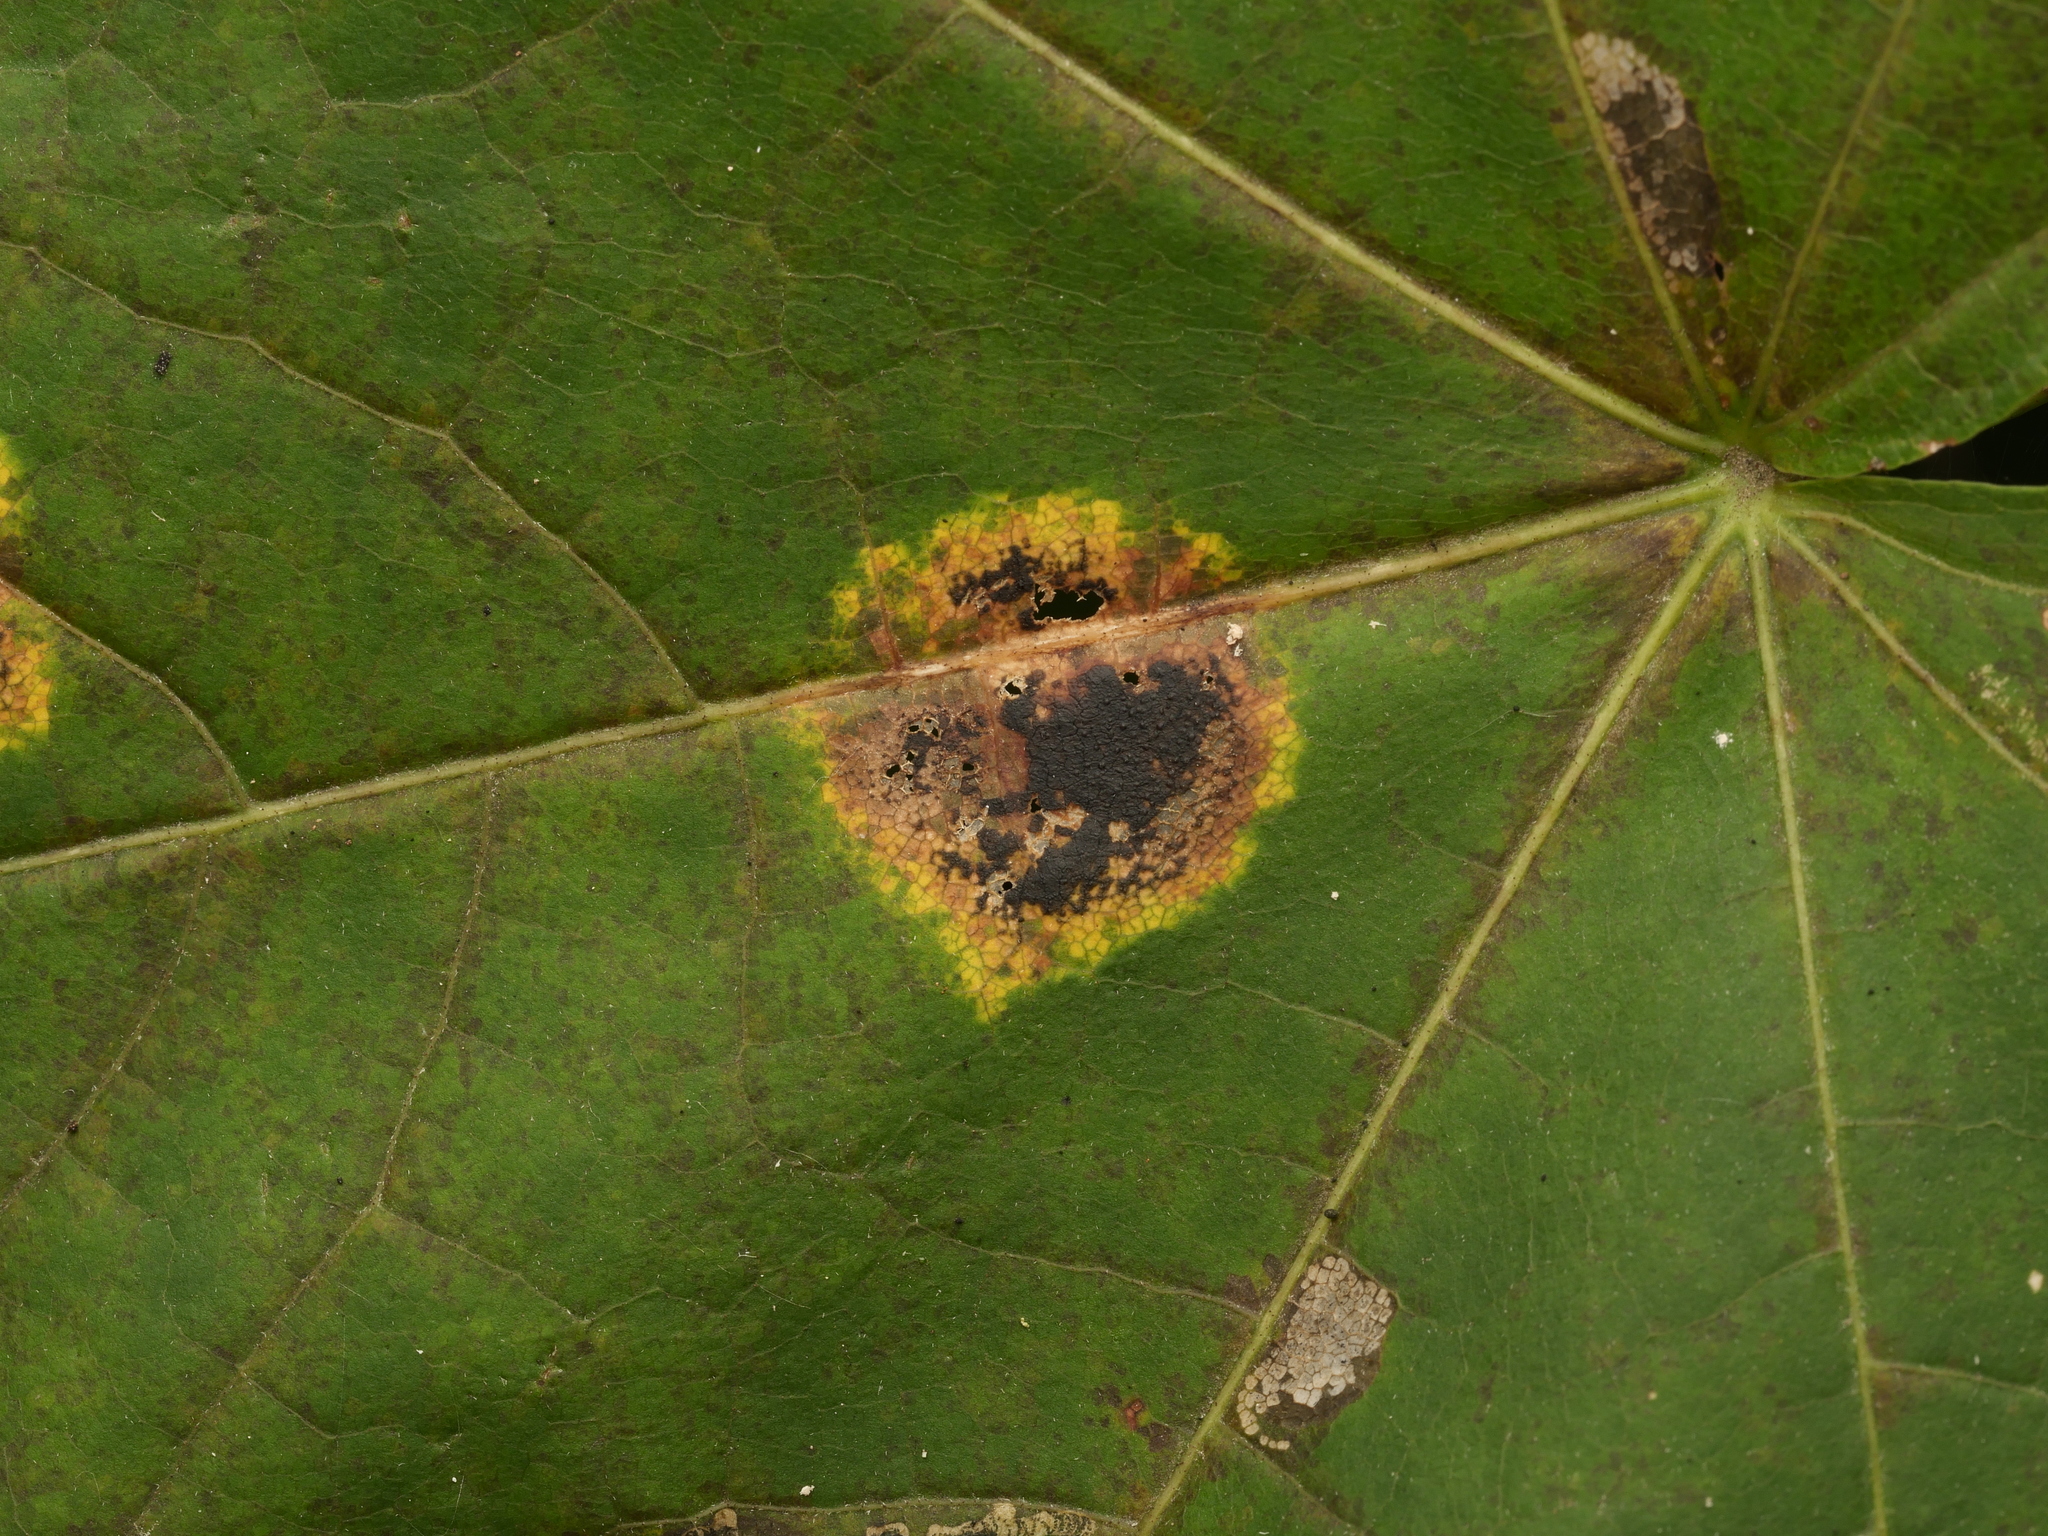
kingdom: Fungi
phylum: Ascomycota
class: Leotiomycetes
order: Rhytismatales
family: Rhytismataceae
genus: Rhytisma
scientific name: Rhytisma acerinum
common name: European tar spot
